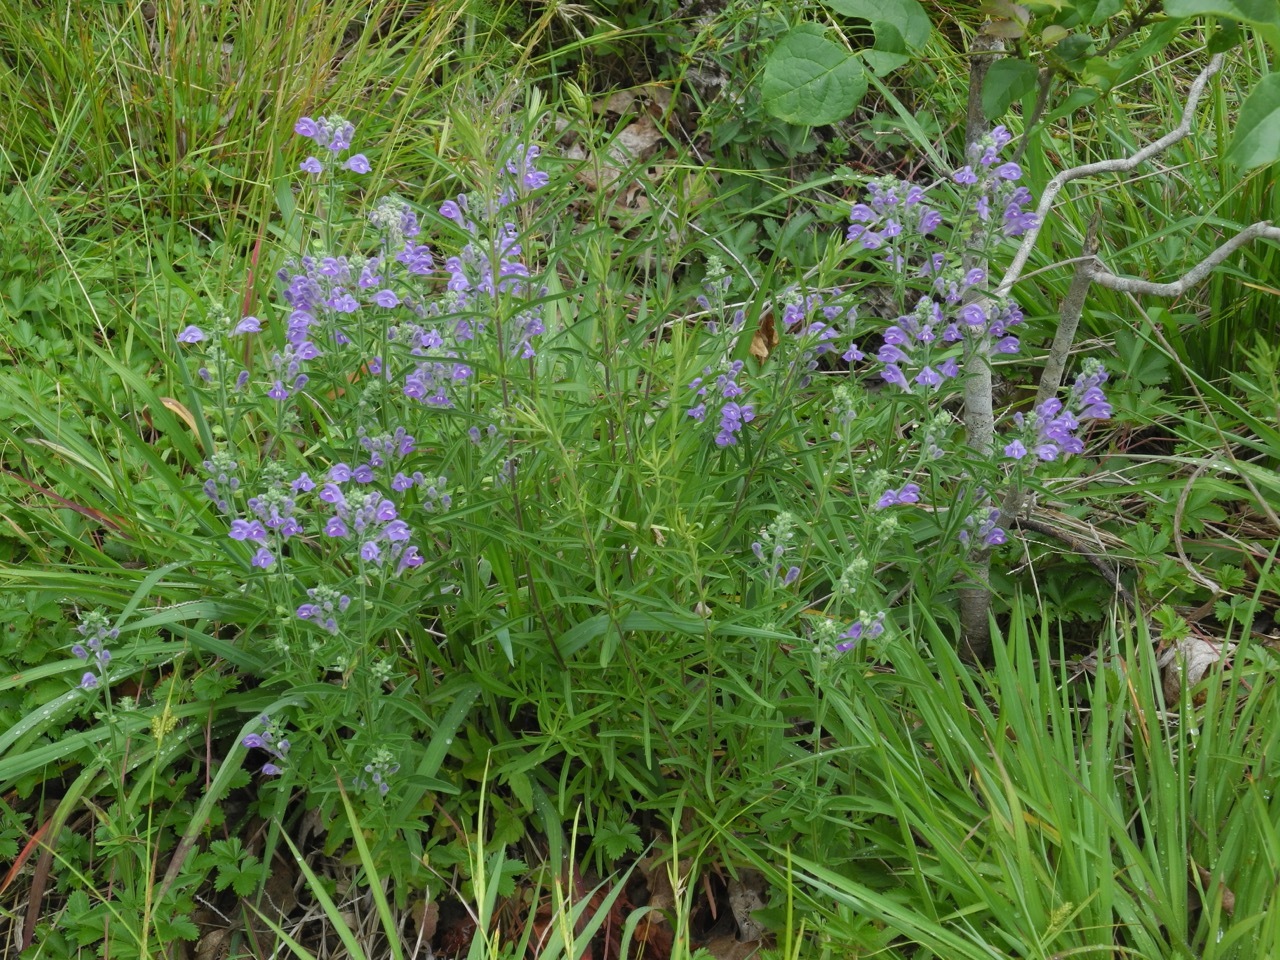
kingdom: Plantae
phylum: Tracheophyta
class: Magnoliopsida
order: Lamiales
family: Lamiaceae
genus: Scutellaria
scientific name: Scutellaria integrifolia
